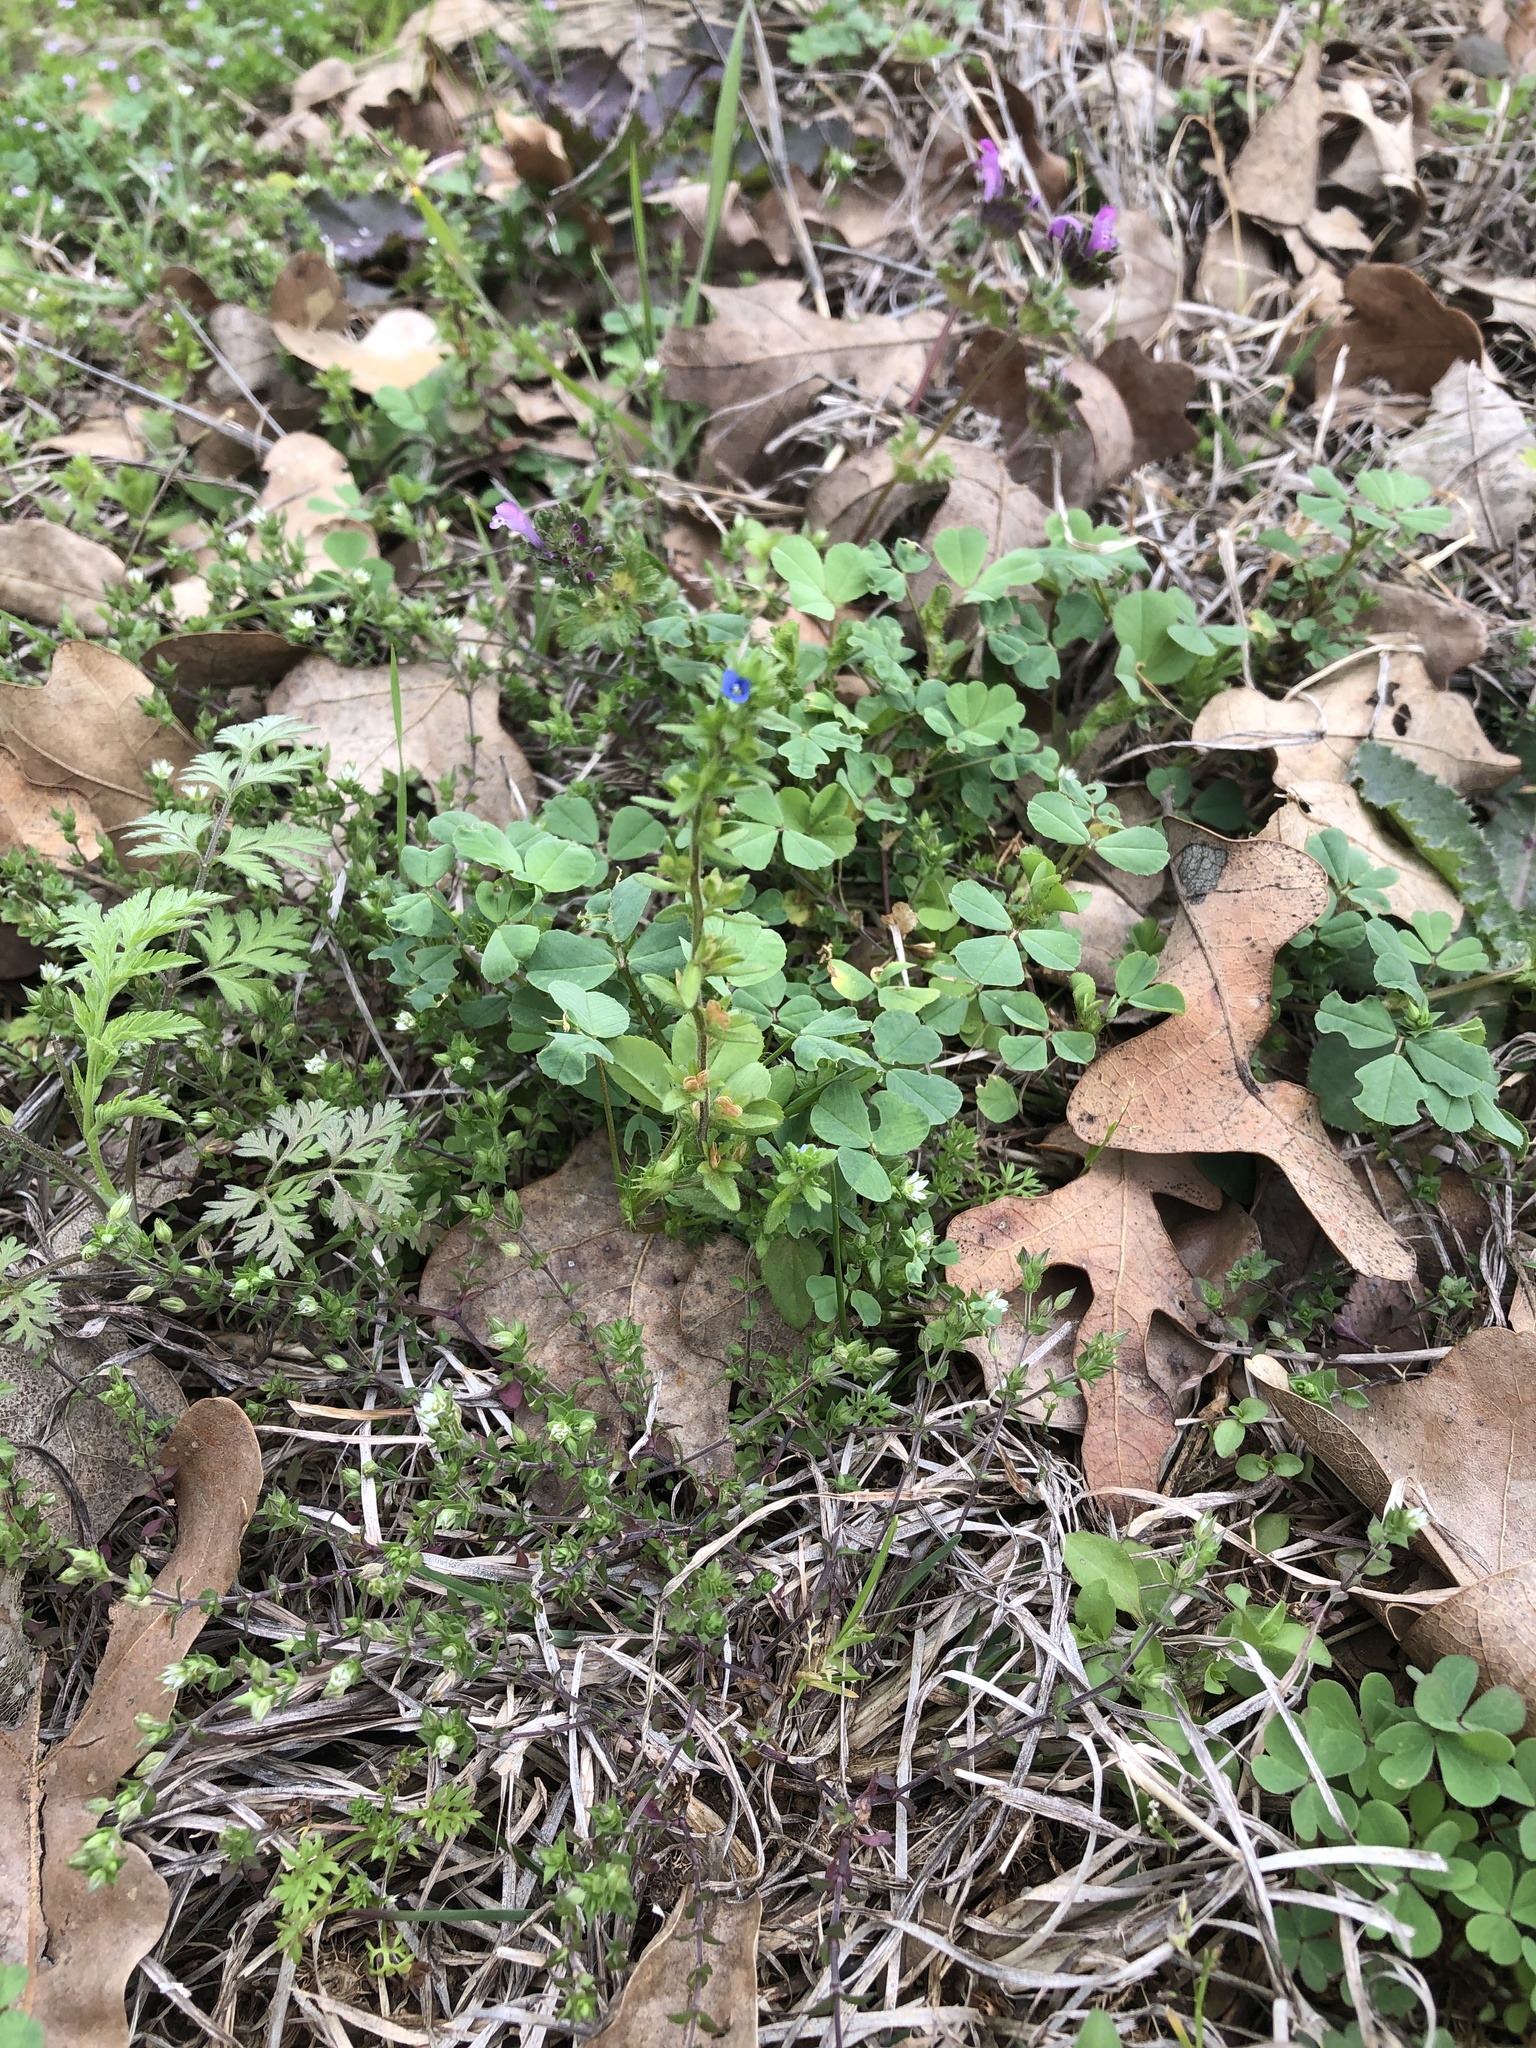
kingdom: Plantae
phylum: Tracheophyta
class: Magnoliopsida
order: Lamiales
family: Plantaginaceae
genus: Veronica
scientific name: Veronica arvensis
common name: Corn speedwell
